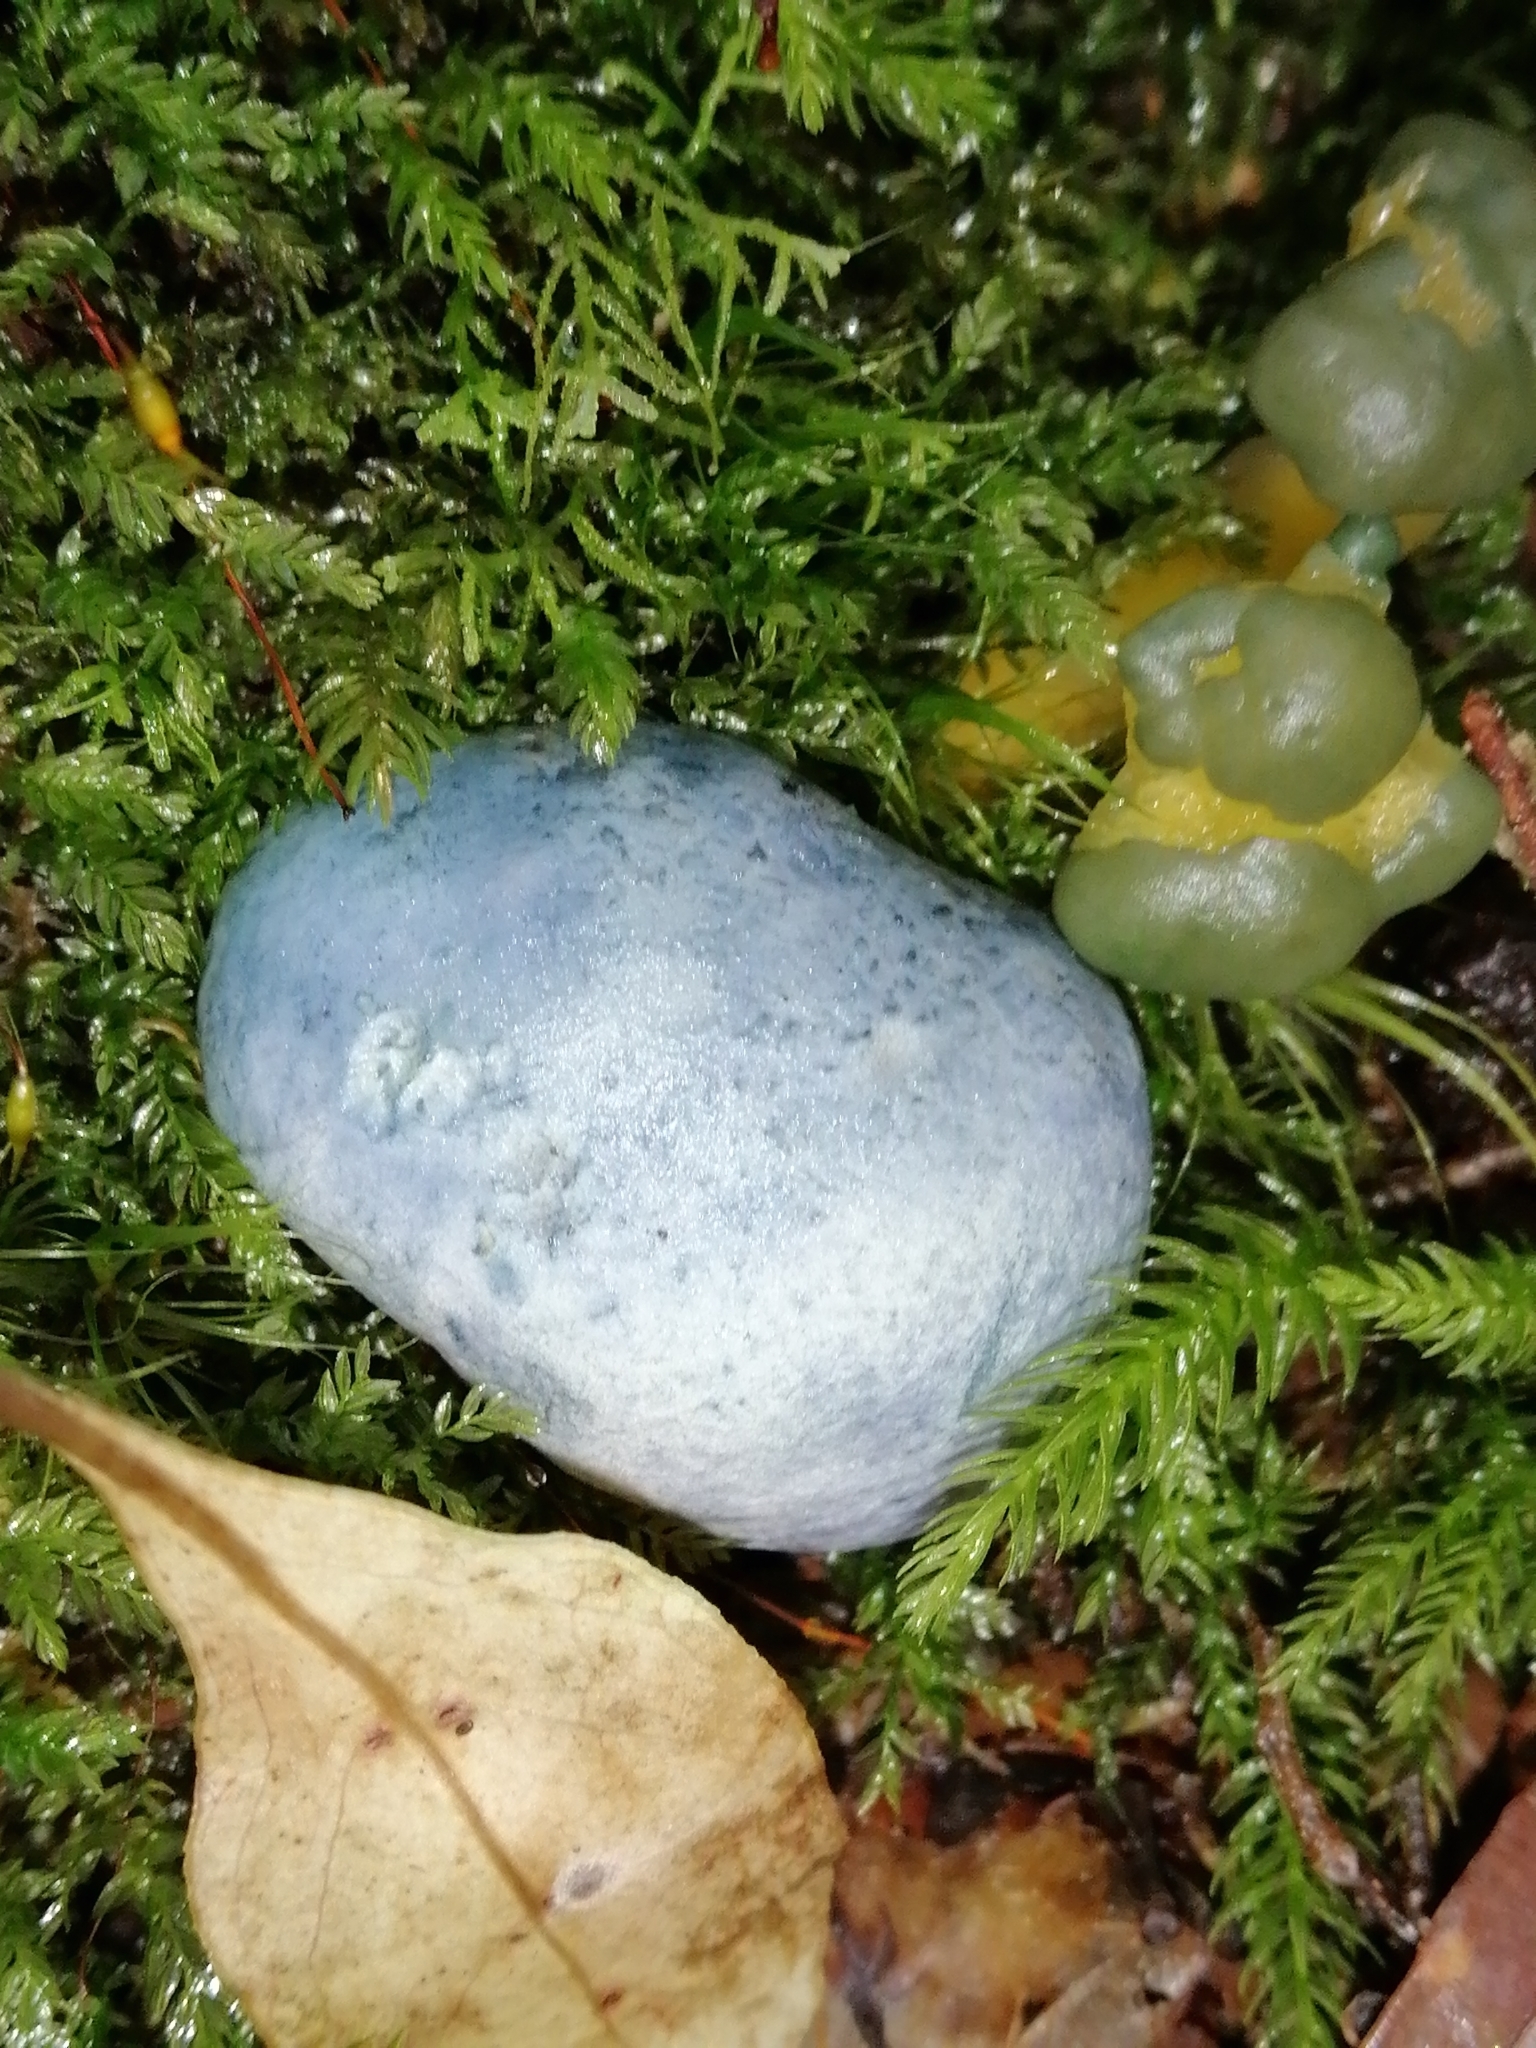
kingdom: Fungi
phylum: Ascomycota
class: Leotiomycetes
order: Leotiales
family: Leotiaceae
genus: Leotia
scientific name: Leotia lubrica
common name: Jellybaby
